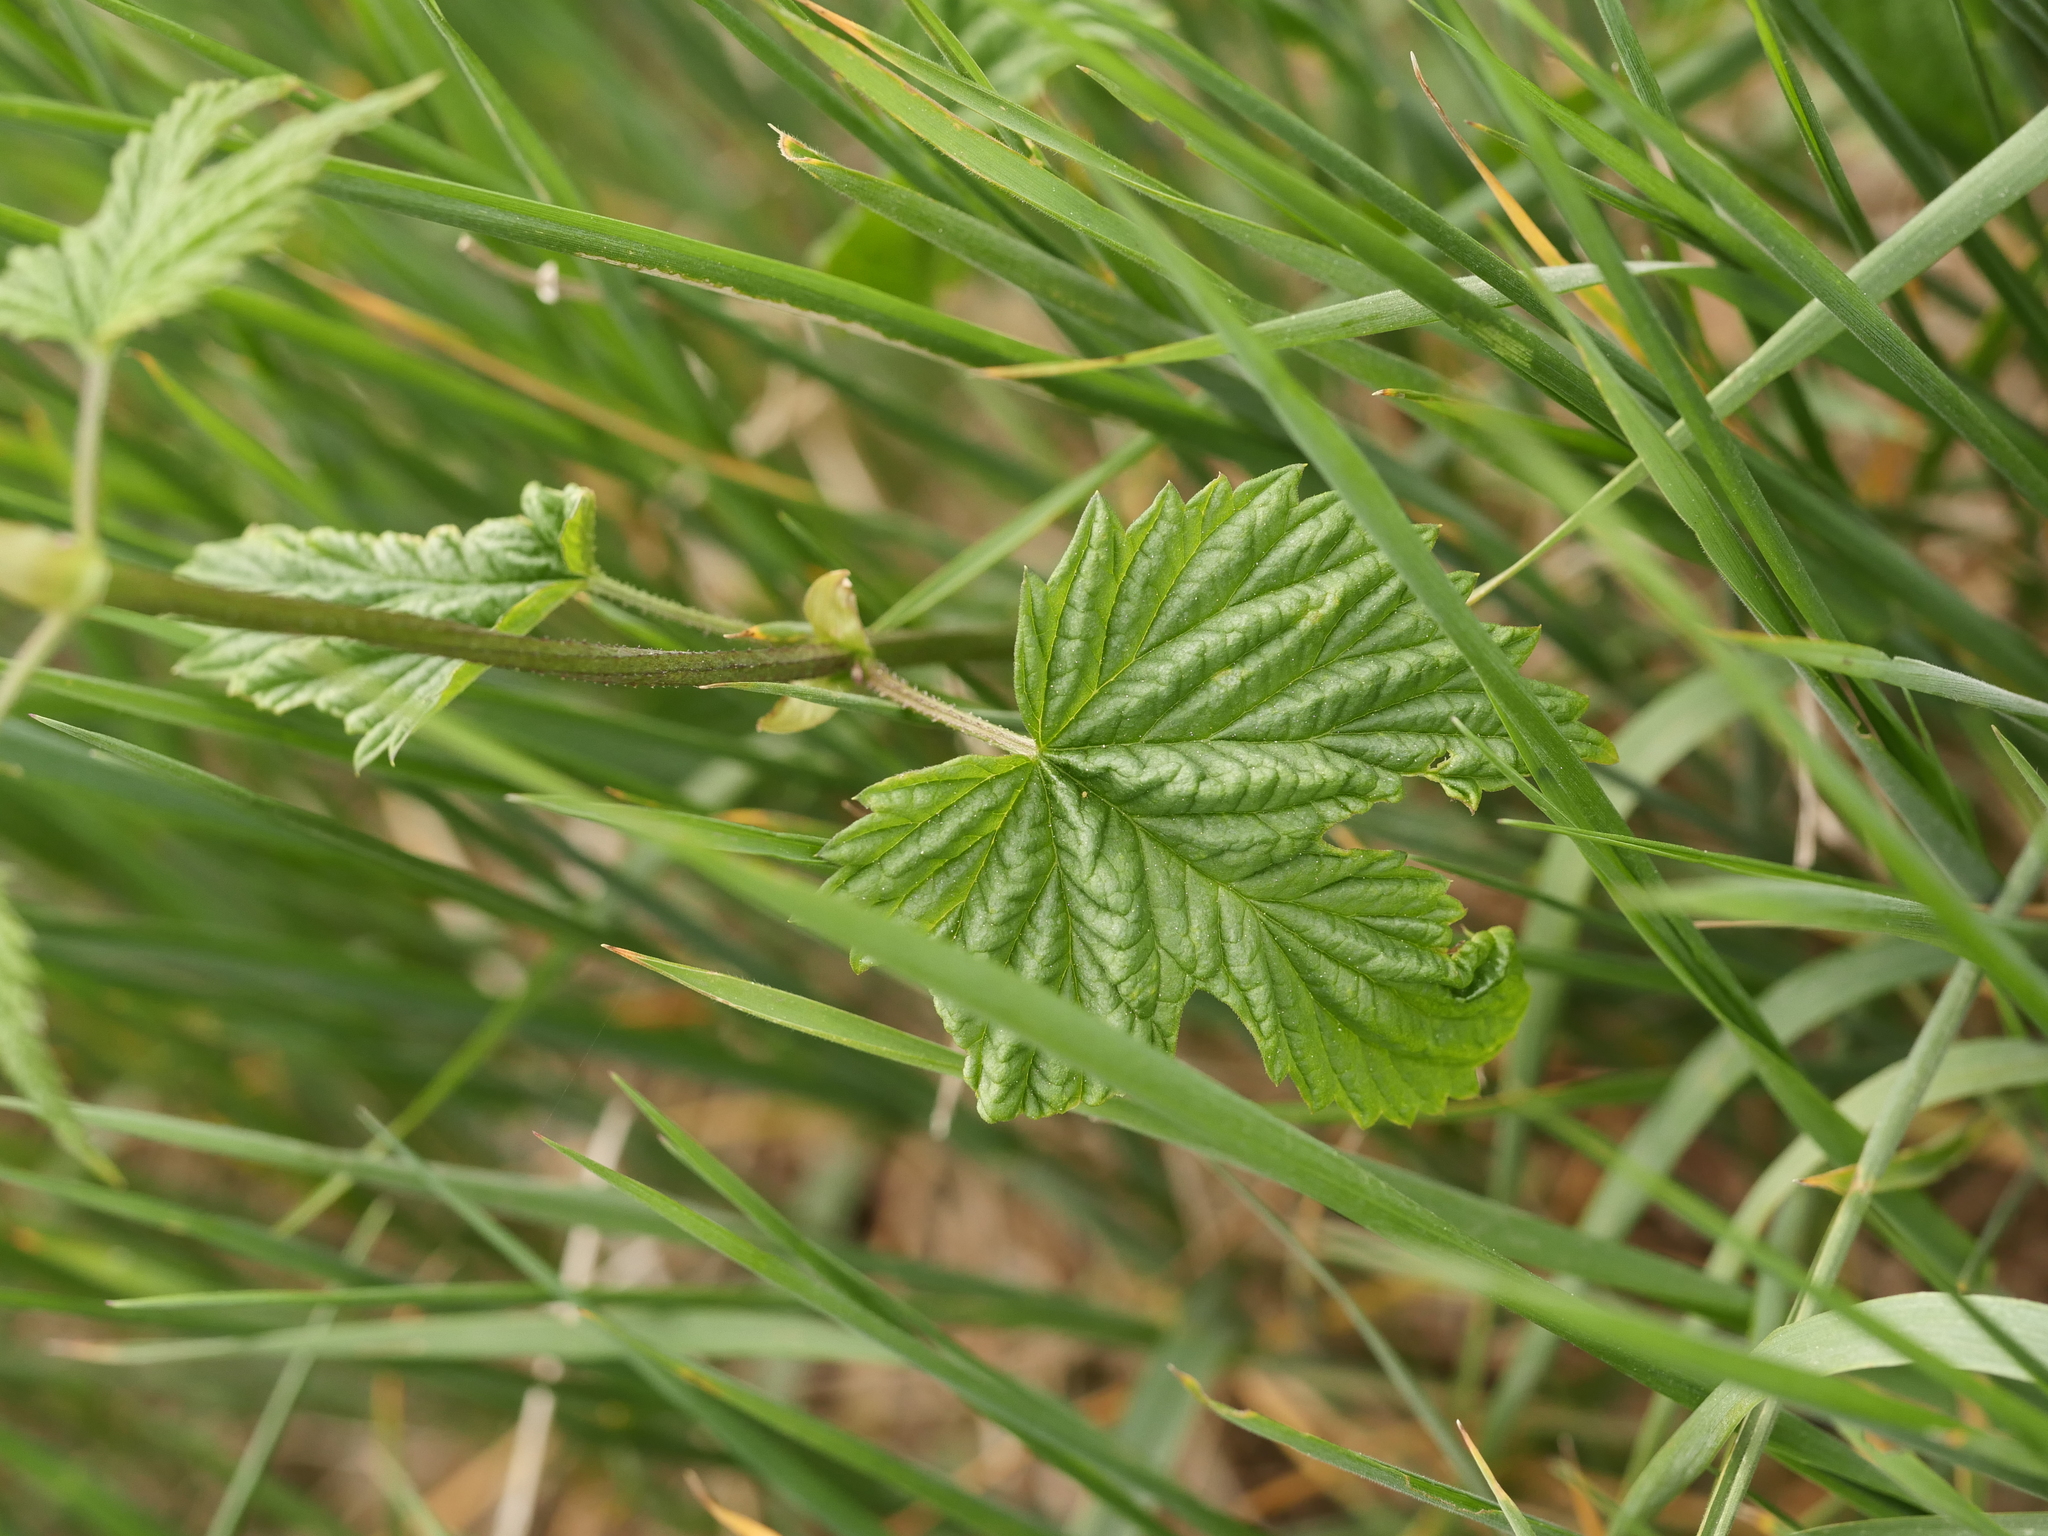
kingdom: Plantae
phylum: Tracheophyta
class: Magnoliopsida
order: Rosales
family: Cannabaceae
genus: Humulus
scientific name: Humulus lupulus
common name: Hop
